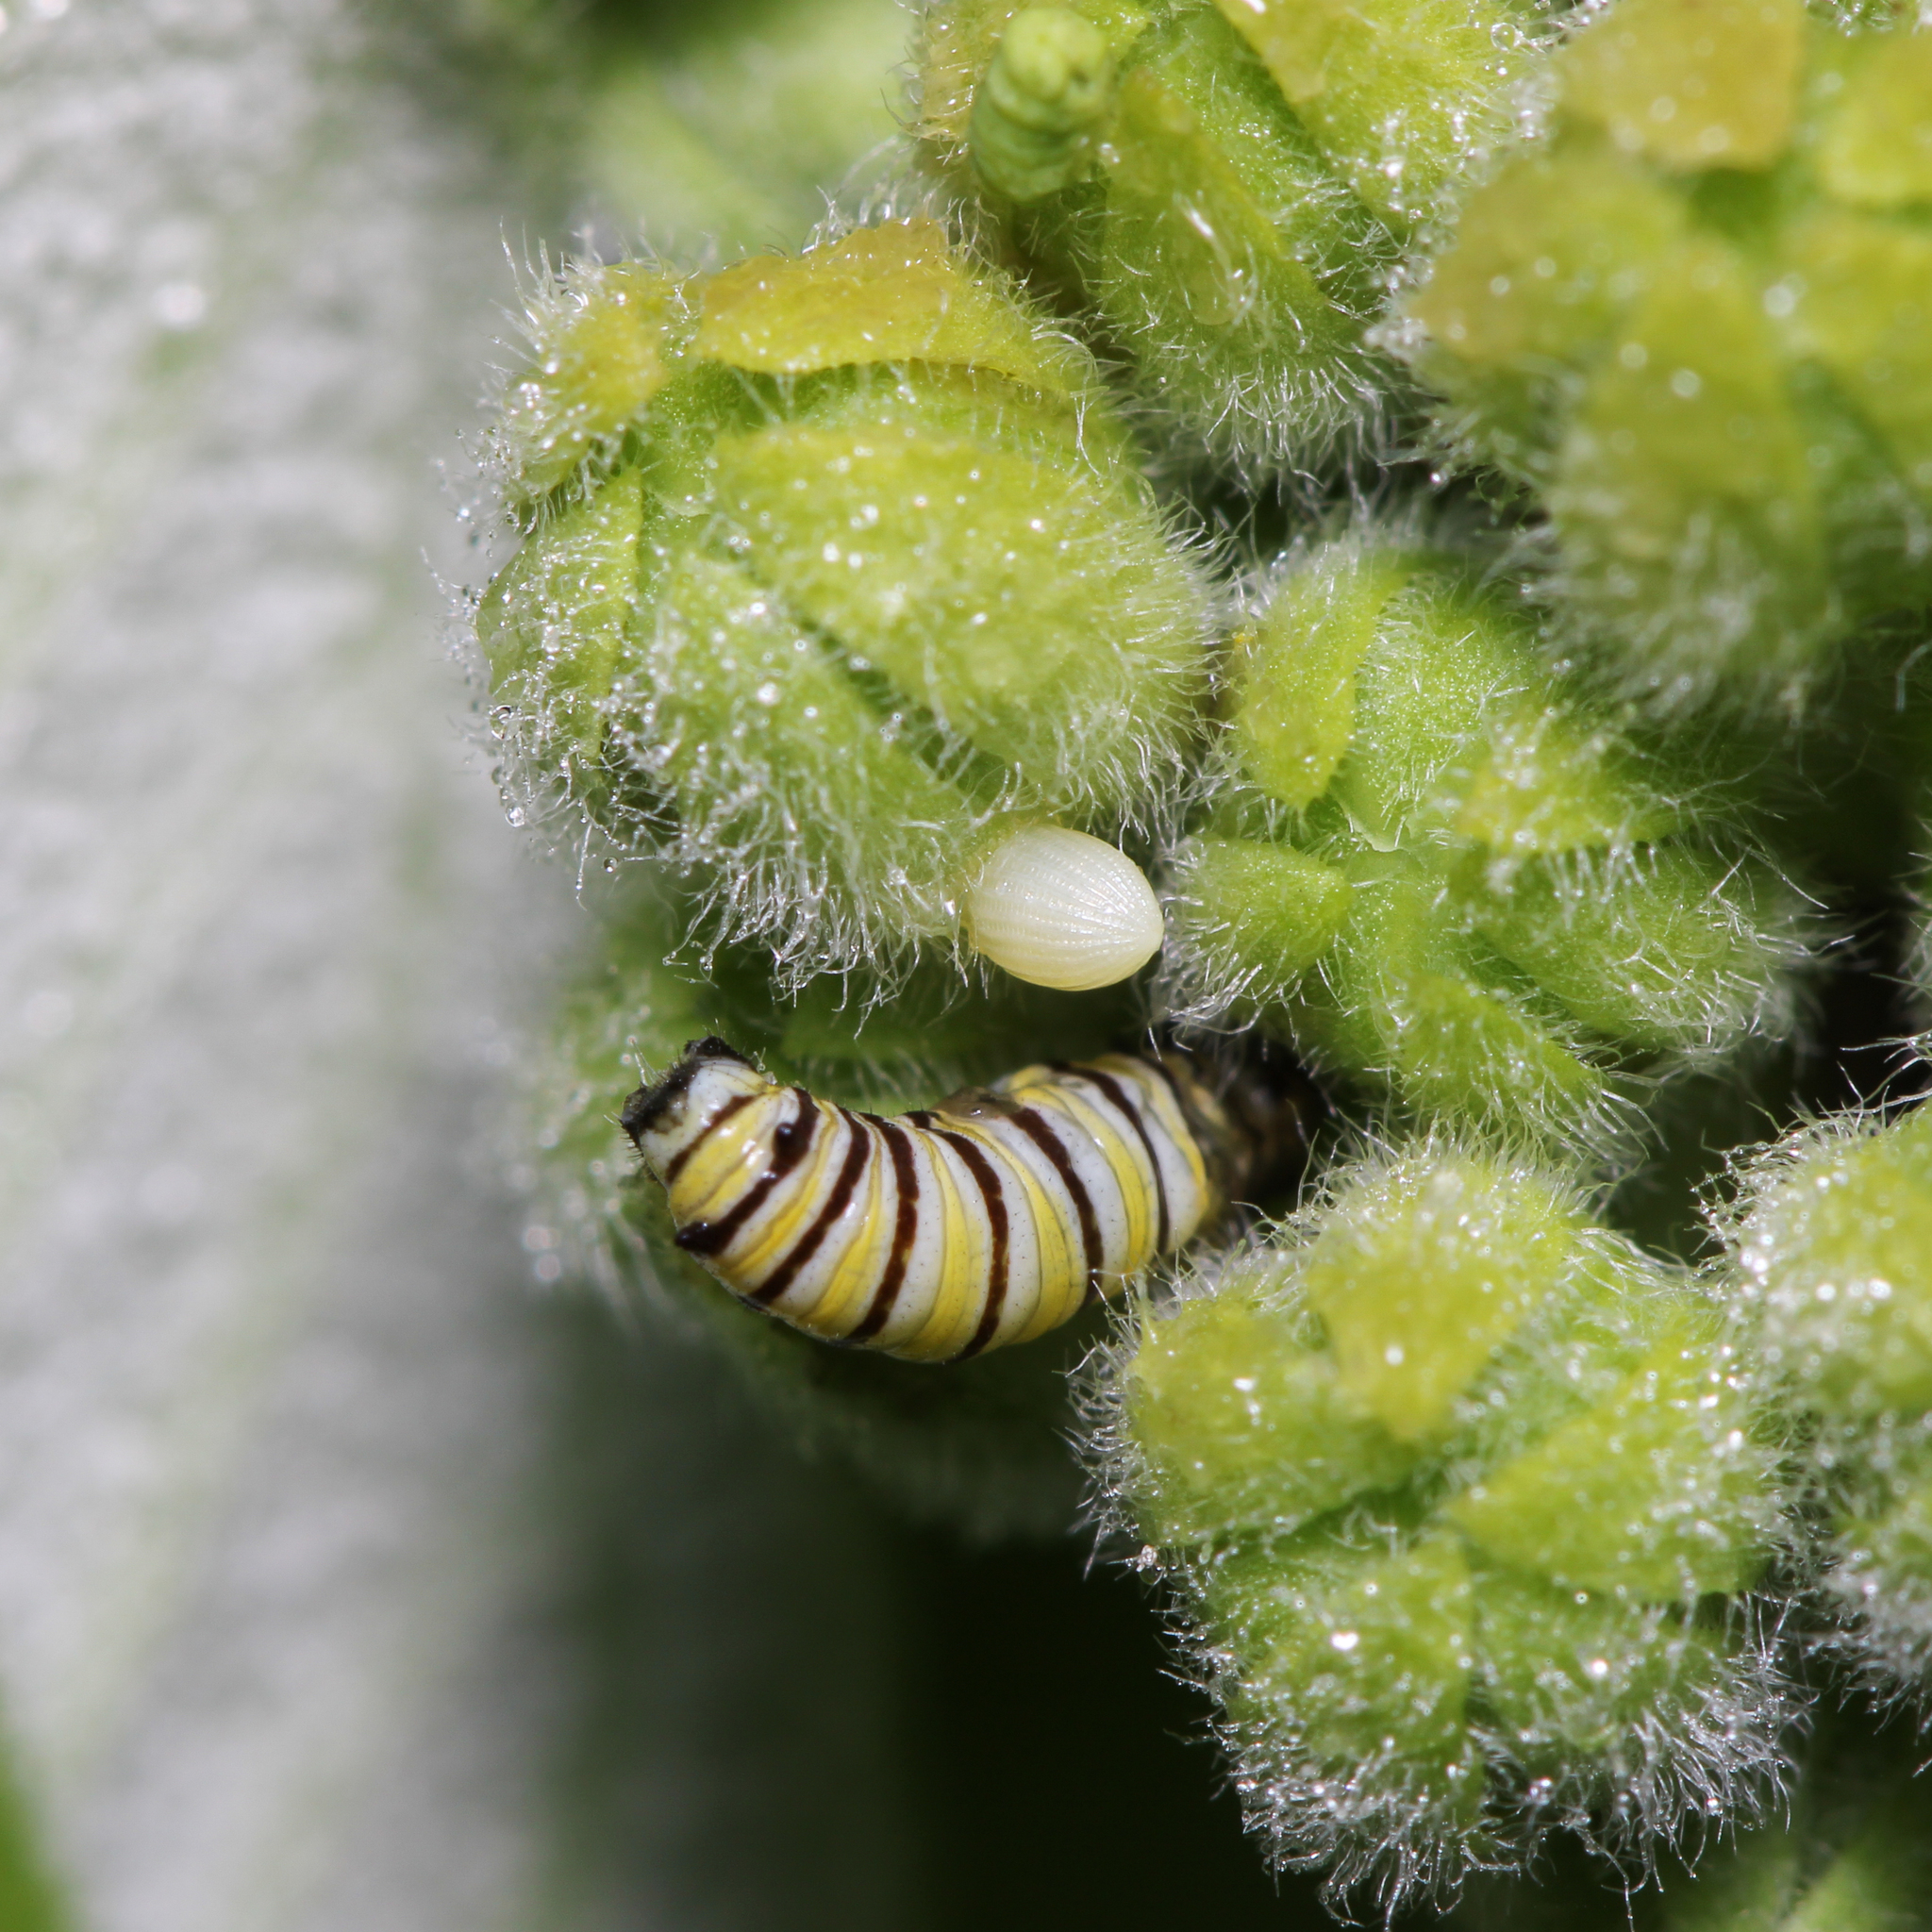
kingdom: Animalia
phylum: Arthropoda
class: Insecta
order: Lepidoptera
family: Nymphalidae
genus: Danaus
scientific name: Danaus plexippus
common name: Monarch
